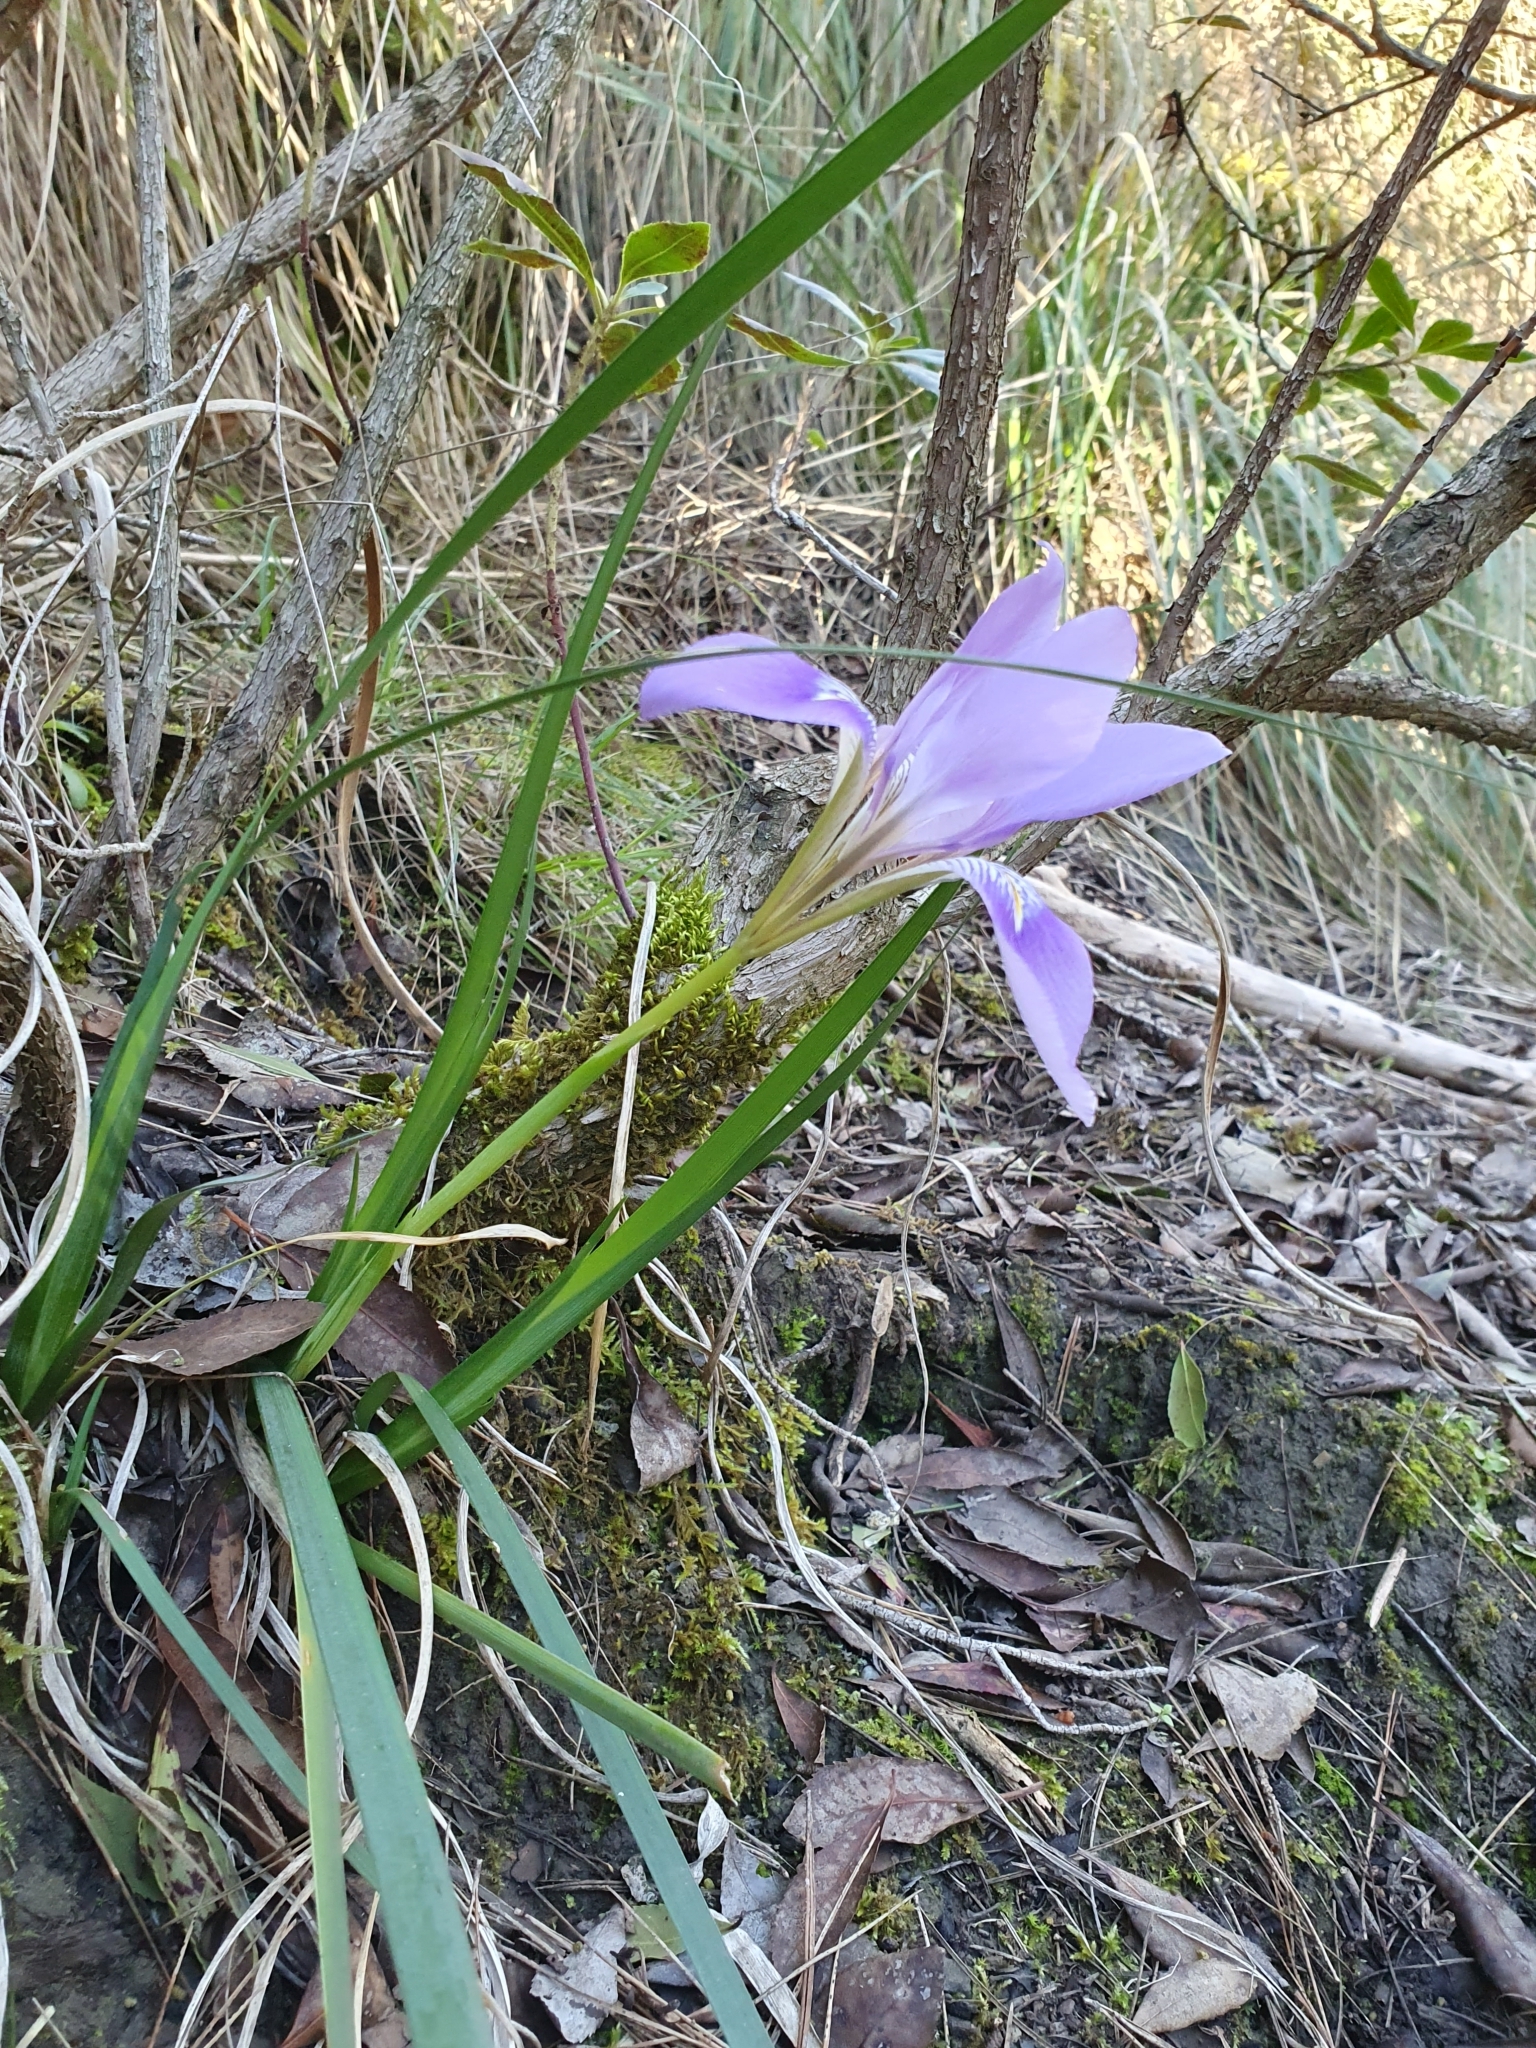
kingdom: Plantae
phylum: Tracheophyta
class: Liliopsida
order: Asparagales
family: Iridaceae
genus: Iris
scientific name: Iris unguicularis
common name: Algerian iris
